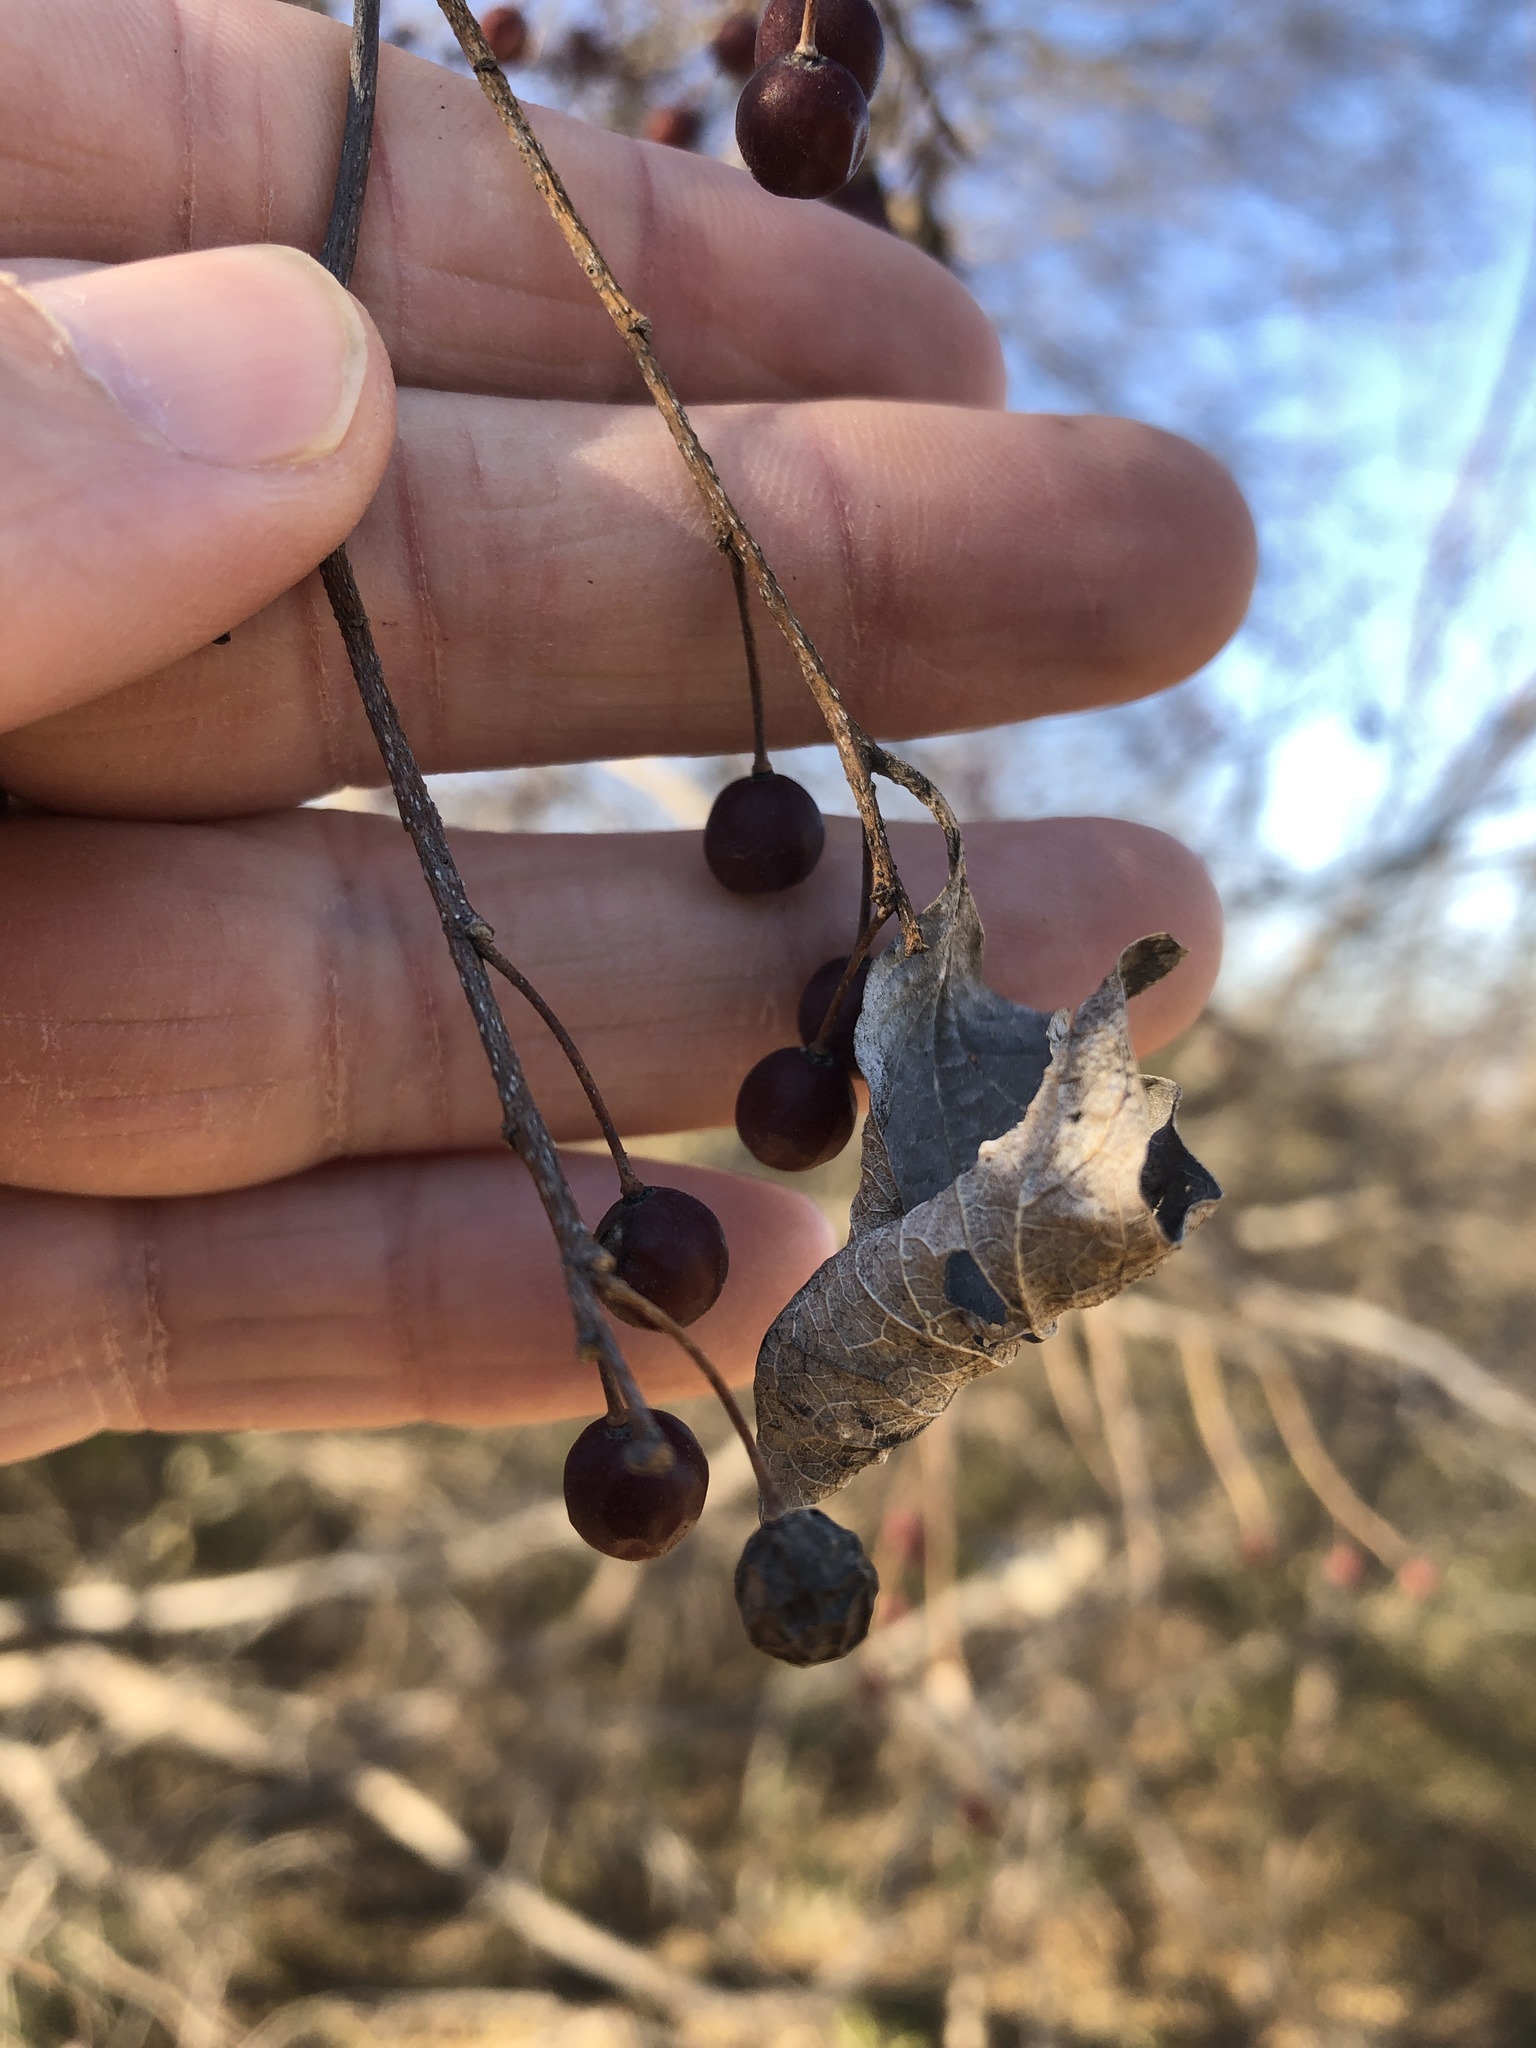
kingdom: Plantae
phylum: Tracheophyta
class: Magnoliopsida
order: Rosales
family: Cannabaceae
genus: Celtis
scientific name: Celtis laevigata
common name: Sugarberry
